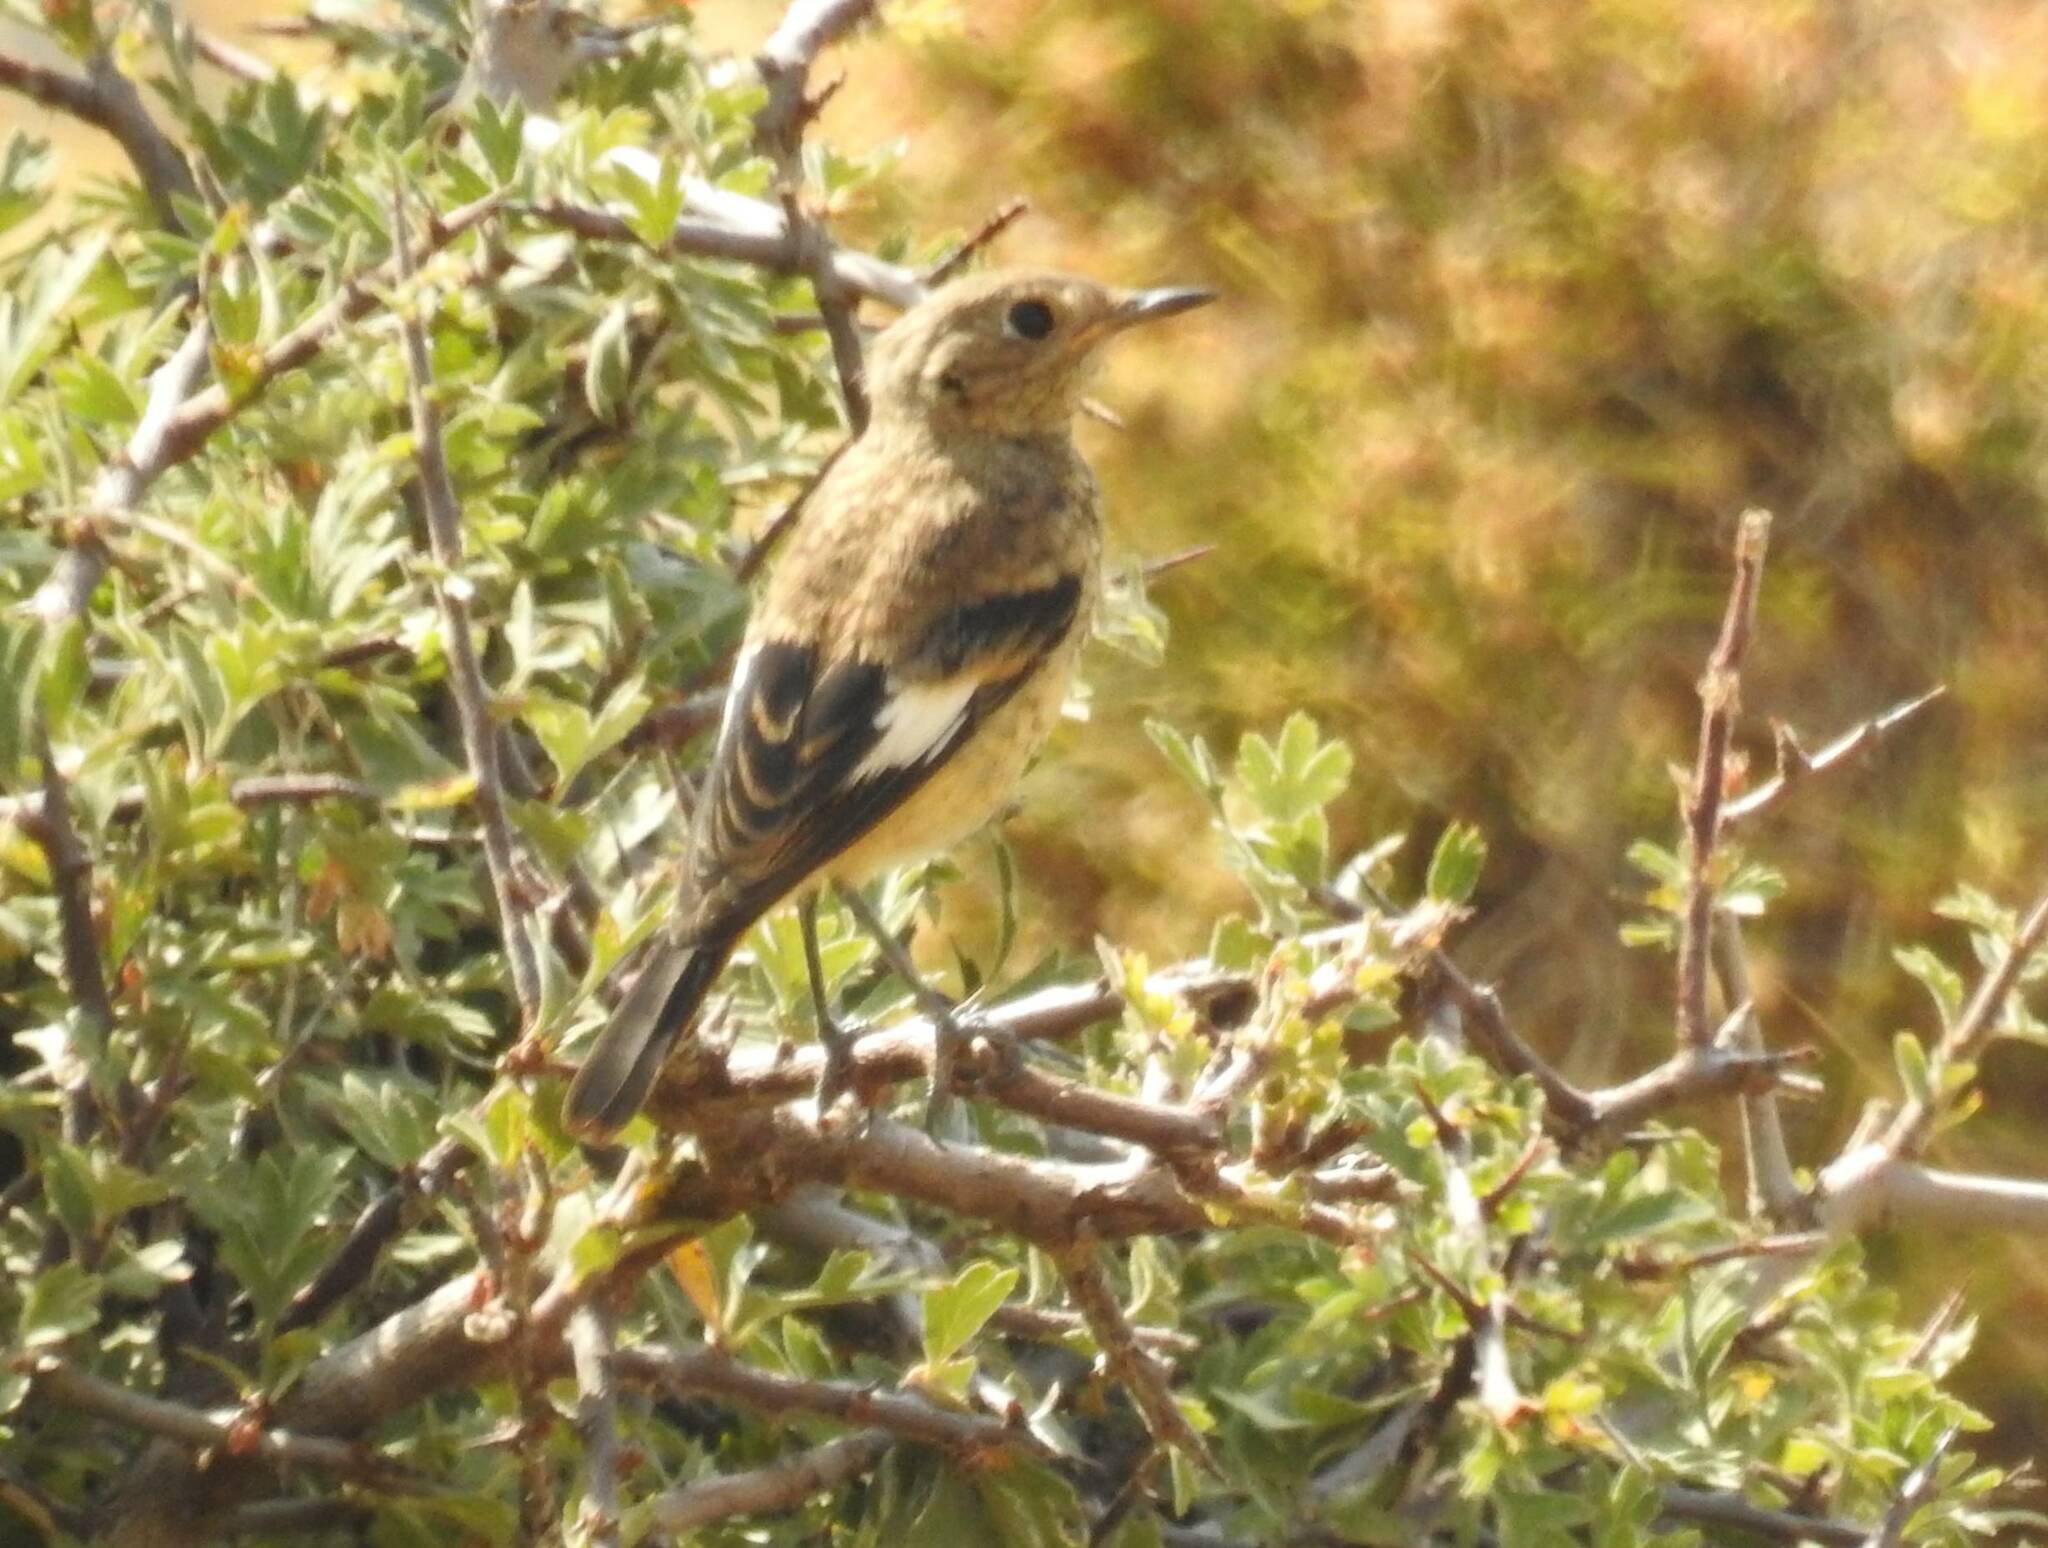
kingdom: Animalia
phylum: Chordata
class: Aves
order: Passeriformes
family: Muscicapidae
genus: Phoenicurus
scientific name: Phoenicurus moussieri
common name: Moussier's redstart
